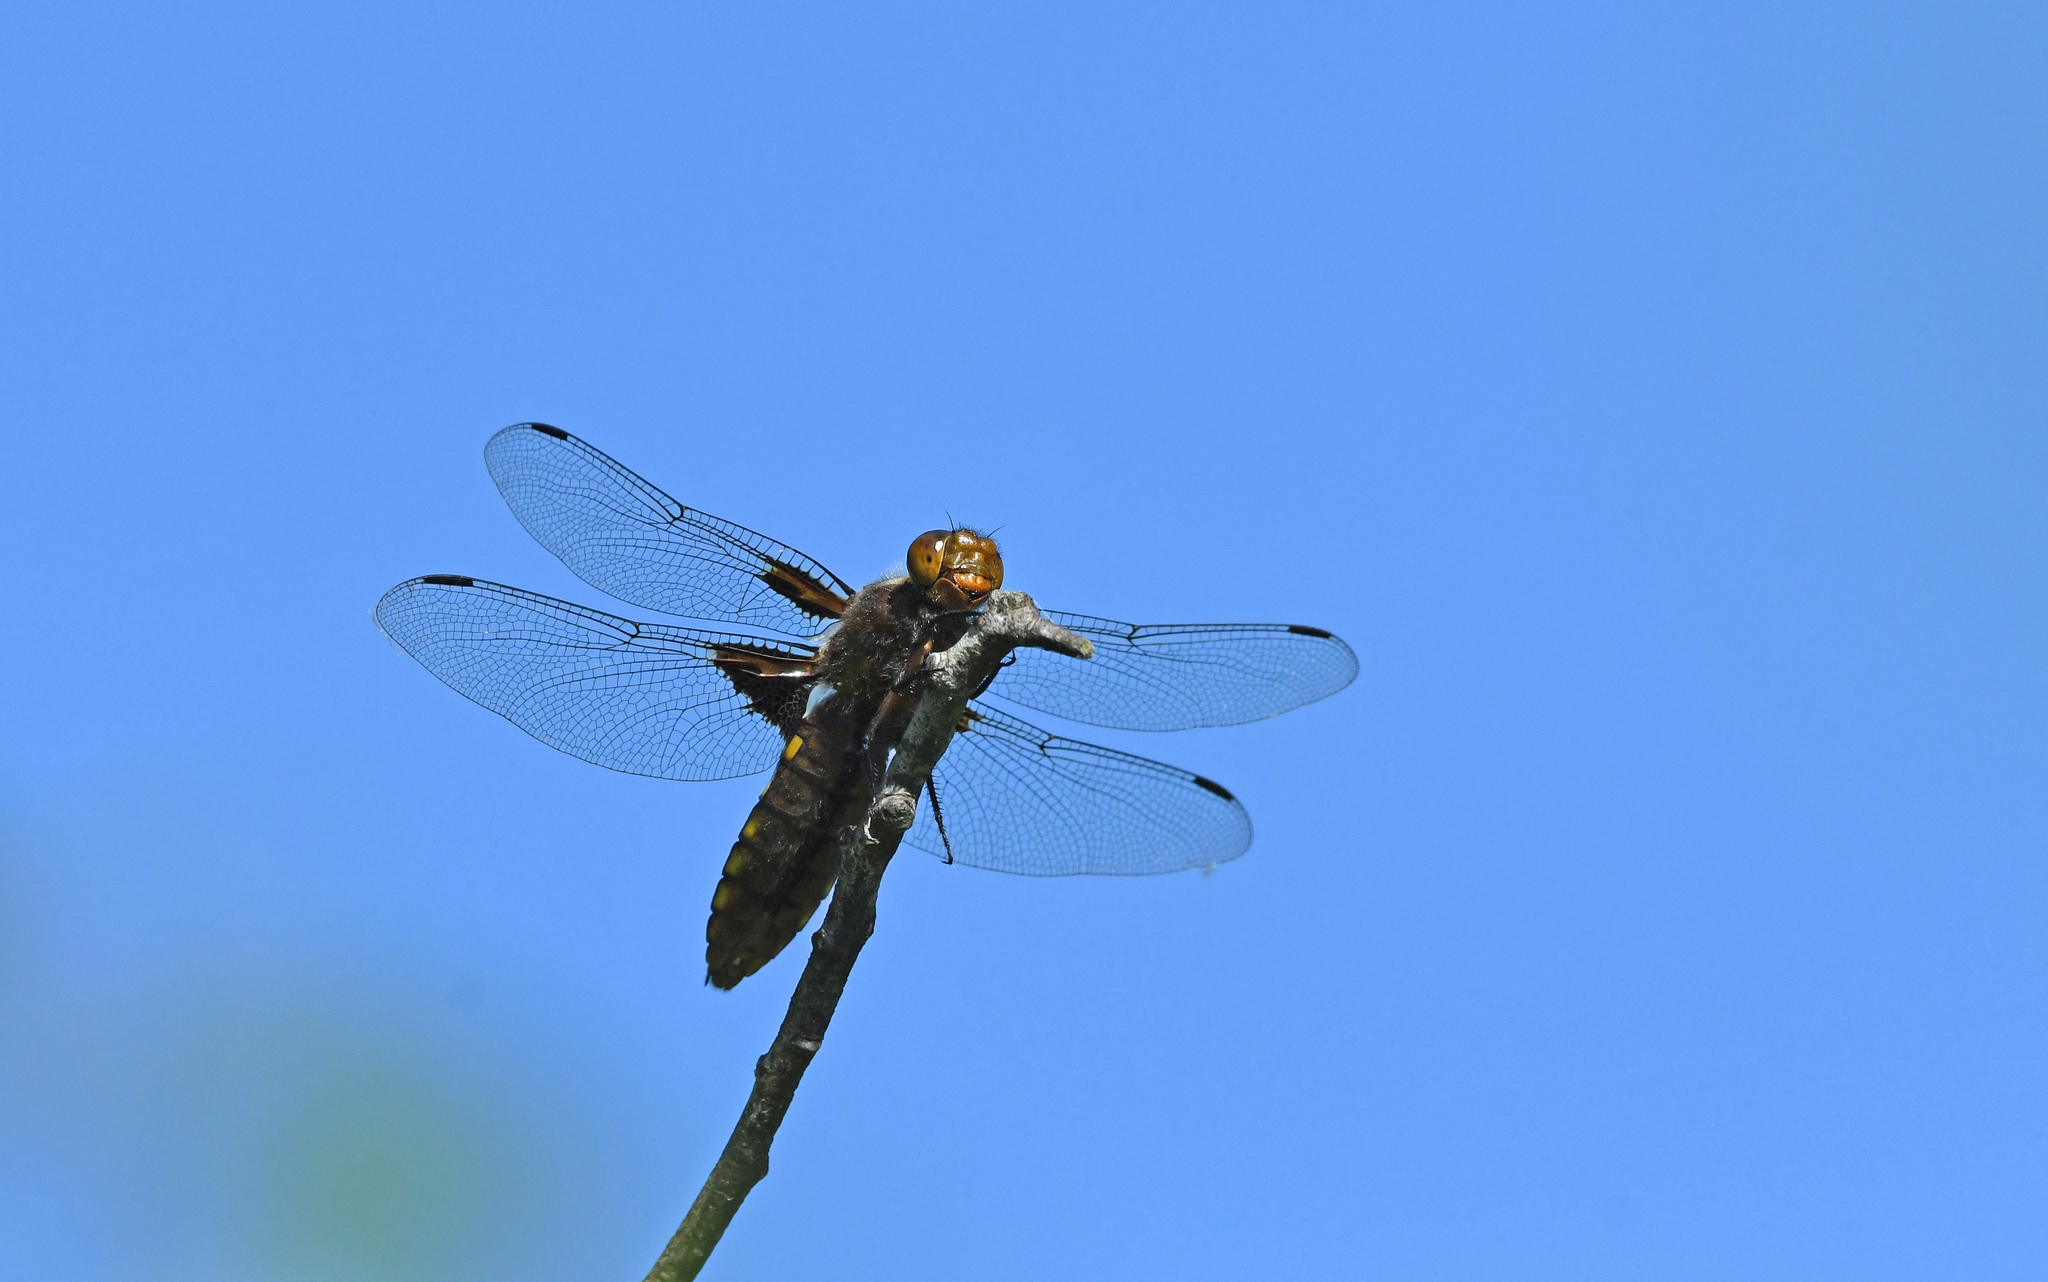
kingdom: Animalia
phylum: Arthropoda
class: Insecta
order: Odonata
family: Libellulidae
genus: Libellula
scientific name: Libellula depressa
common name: Broad-bodied chaser
